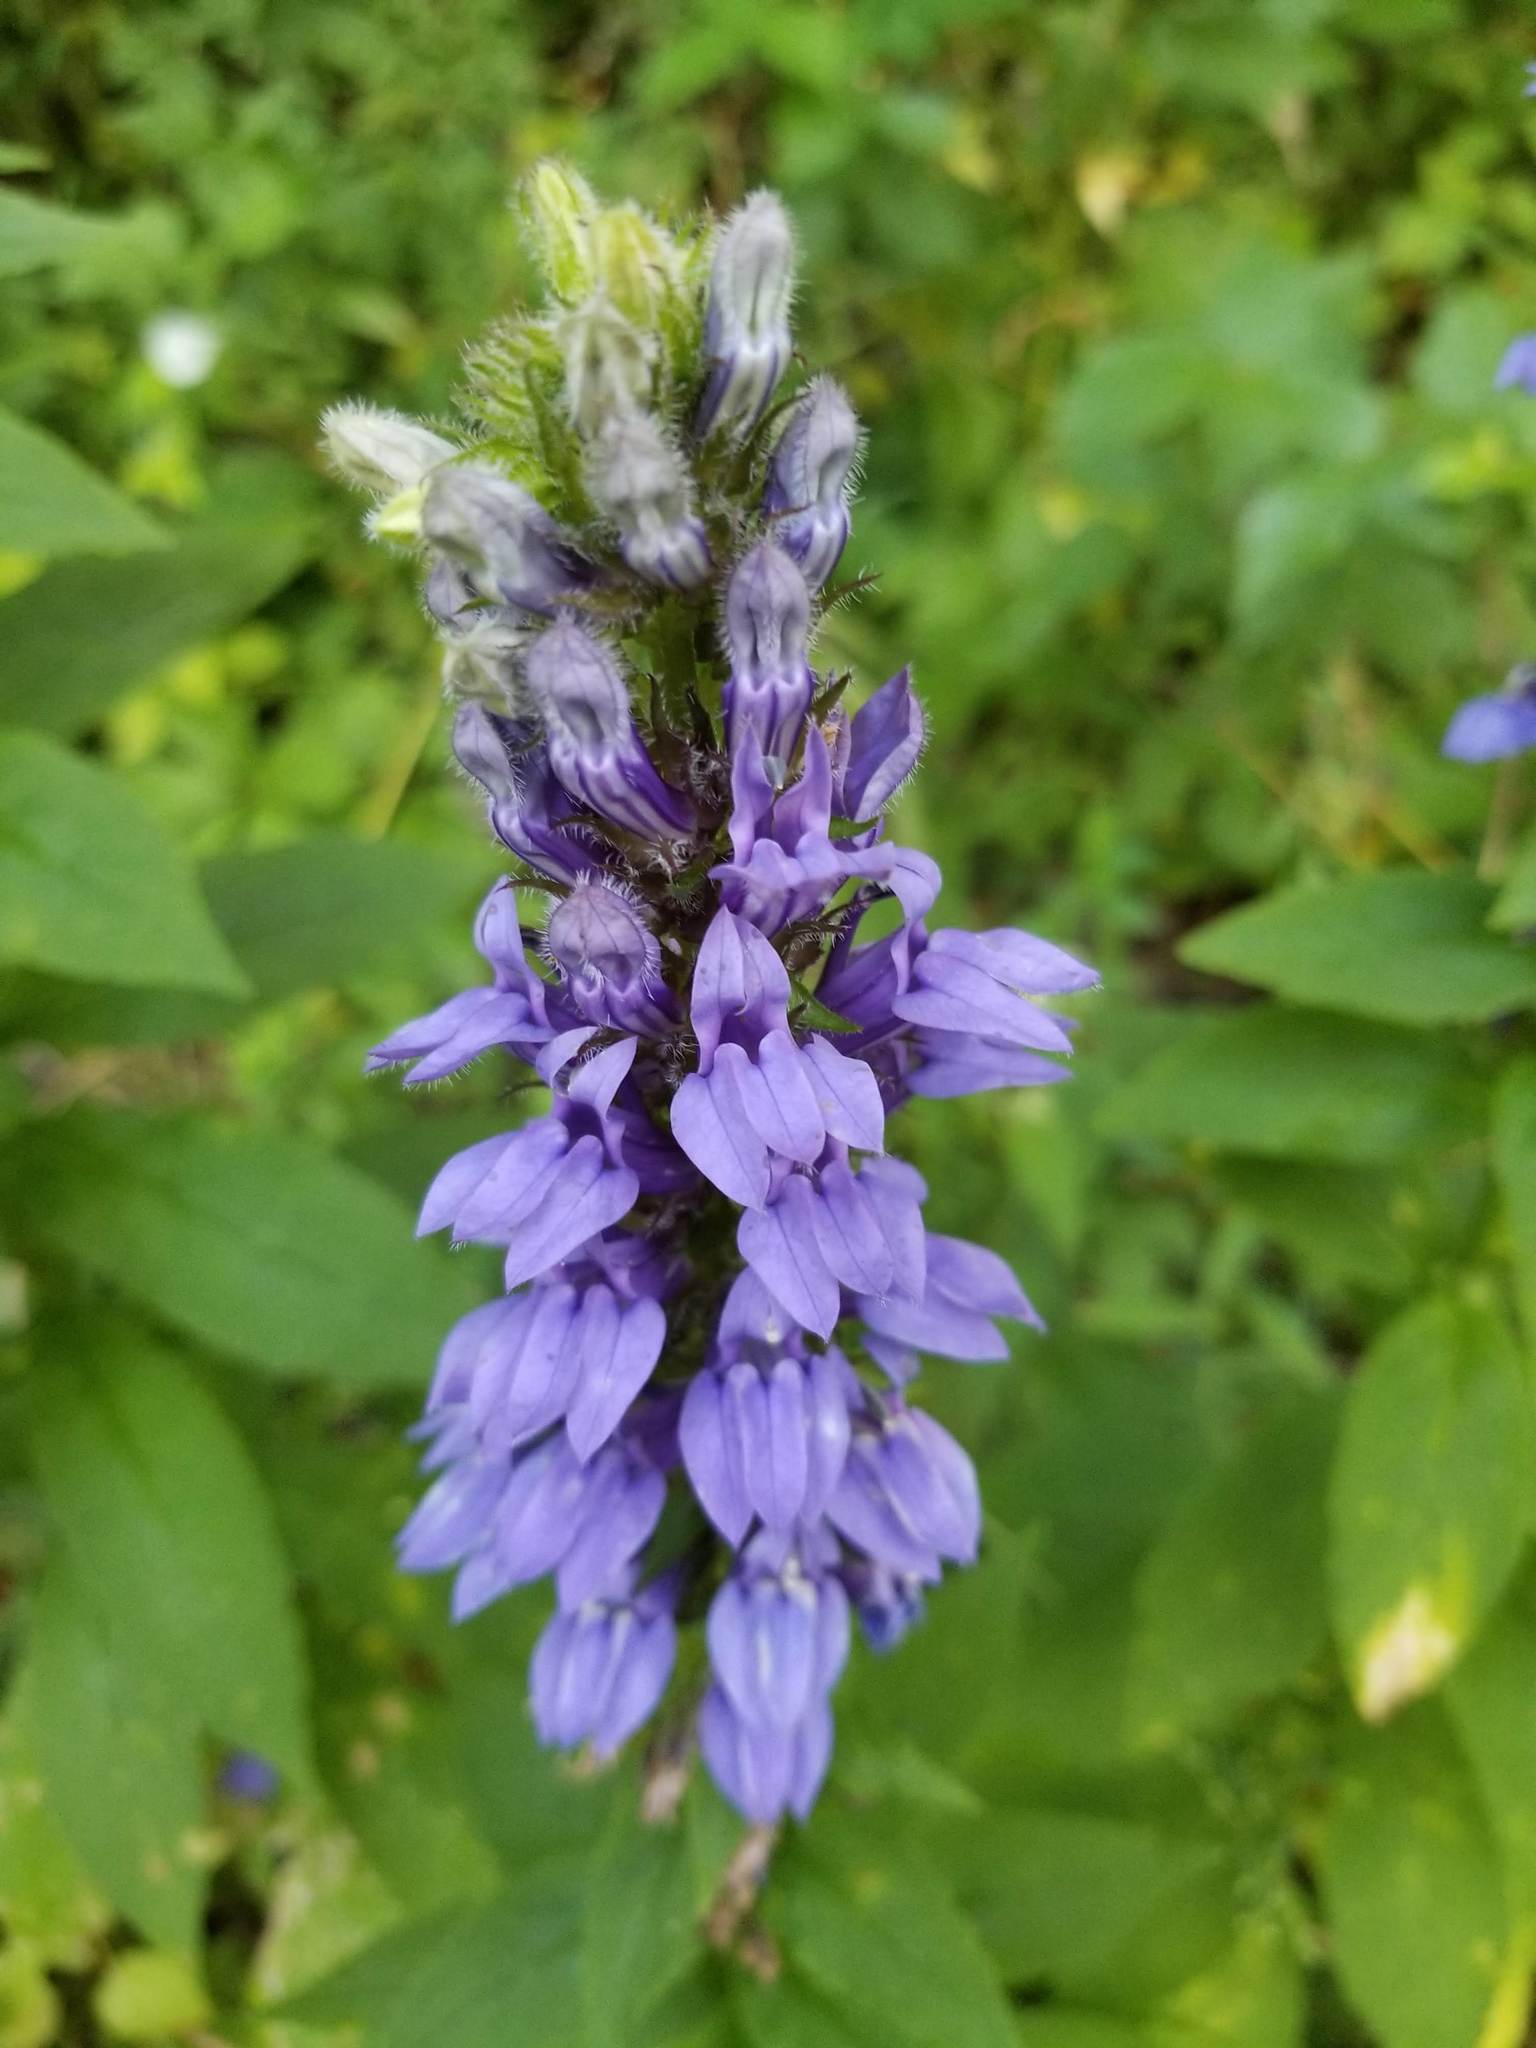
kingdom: Plantae
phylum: Tracheophyta
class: Magnoliopsida
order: Asterales
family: Campanulaceae
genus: Lobelia
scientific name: Lobelia siphilitica
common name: Great lobelia
